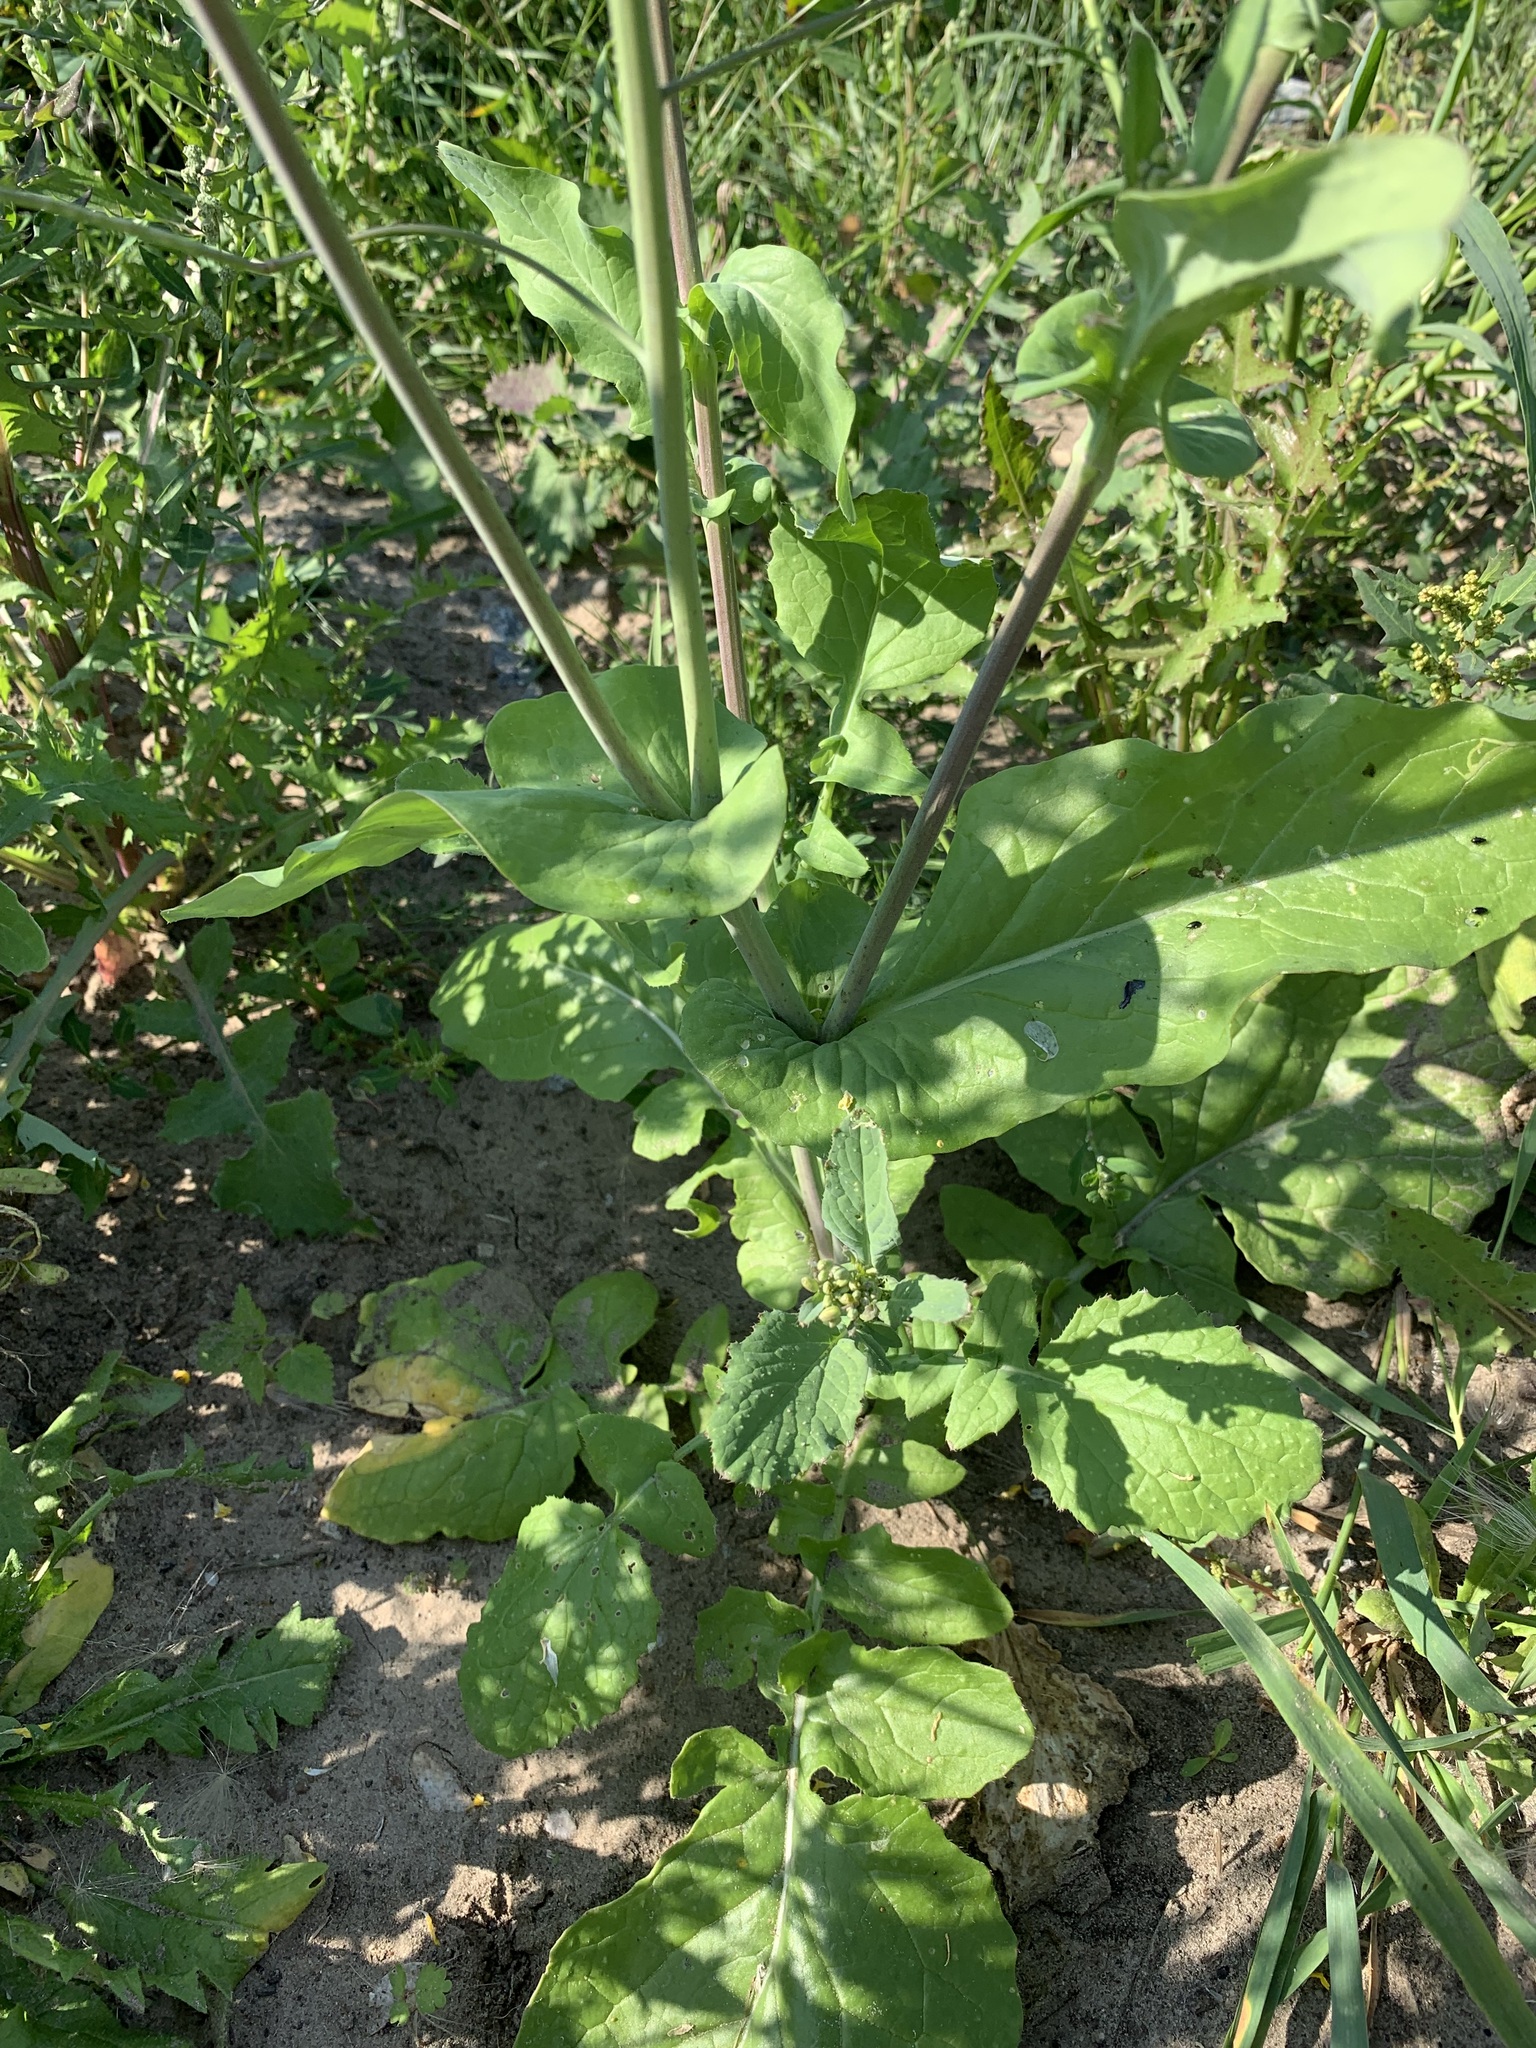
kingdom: Plantae
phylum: Tracheophyta
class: Magnoliopsida
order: Brassicales
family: Brassicaceae
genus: Brassica
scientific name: Brassica napus
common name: Rape
